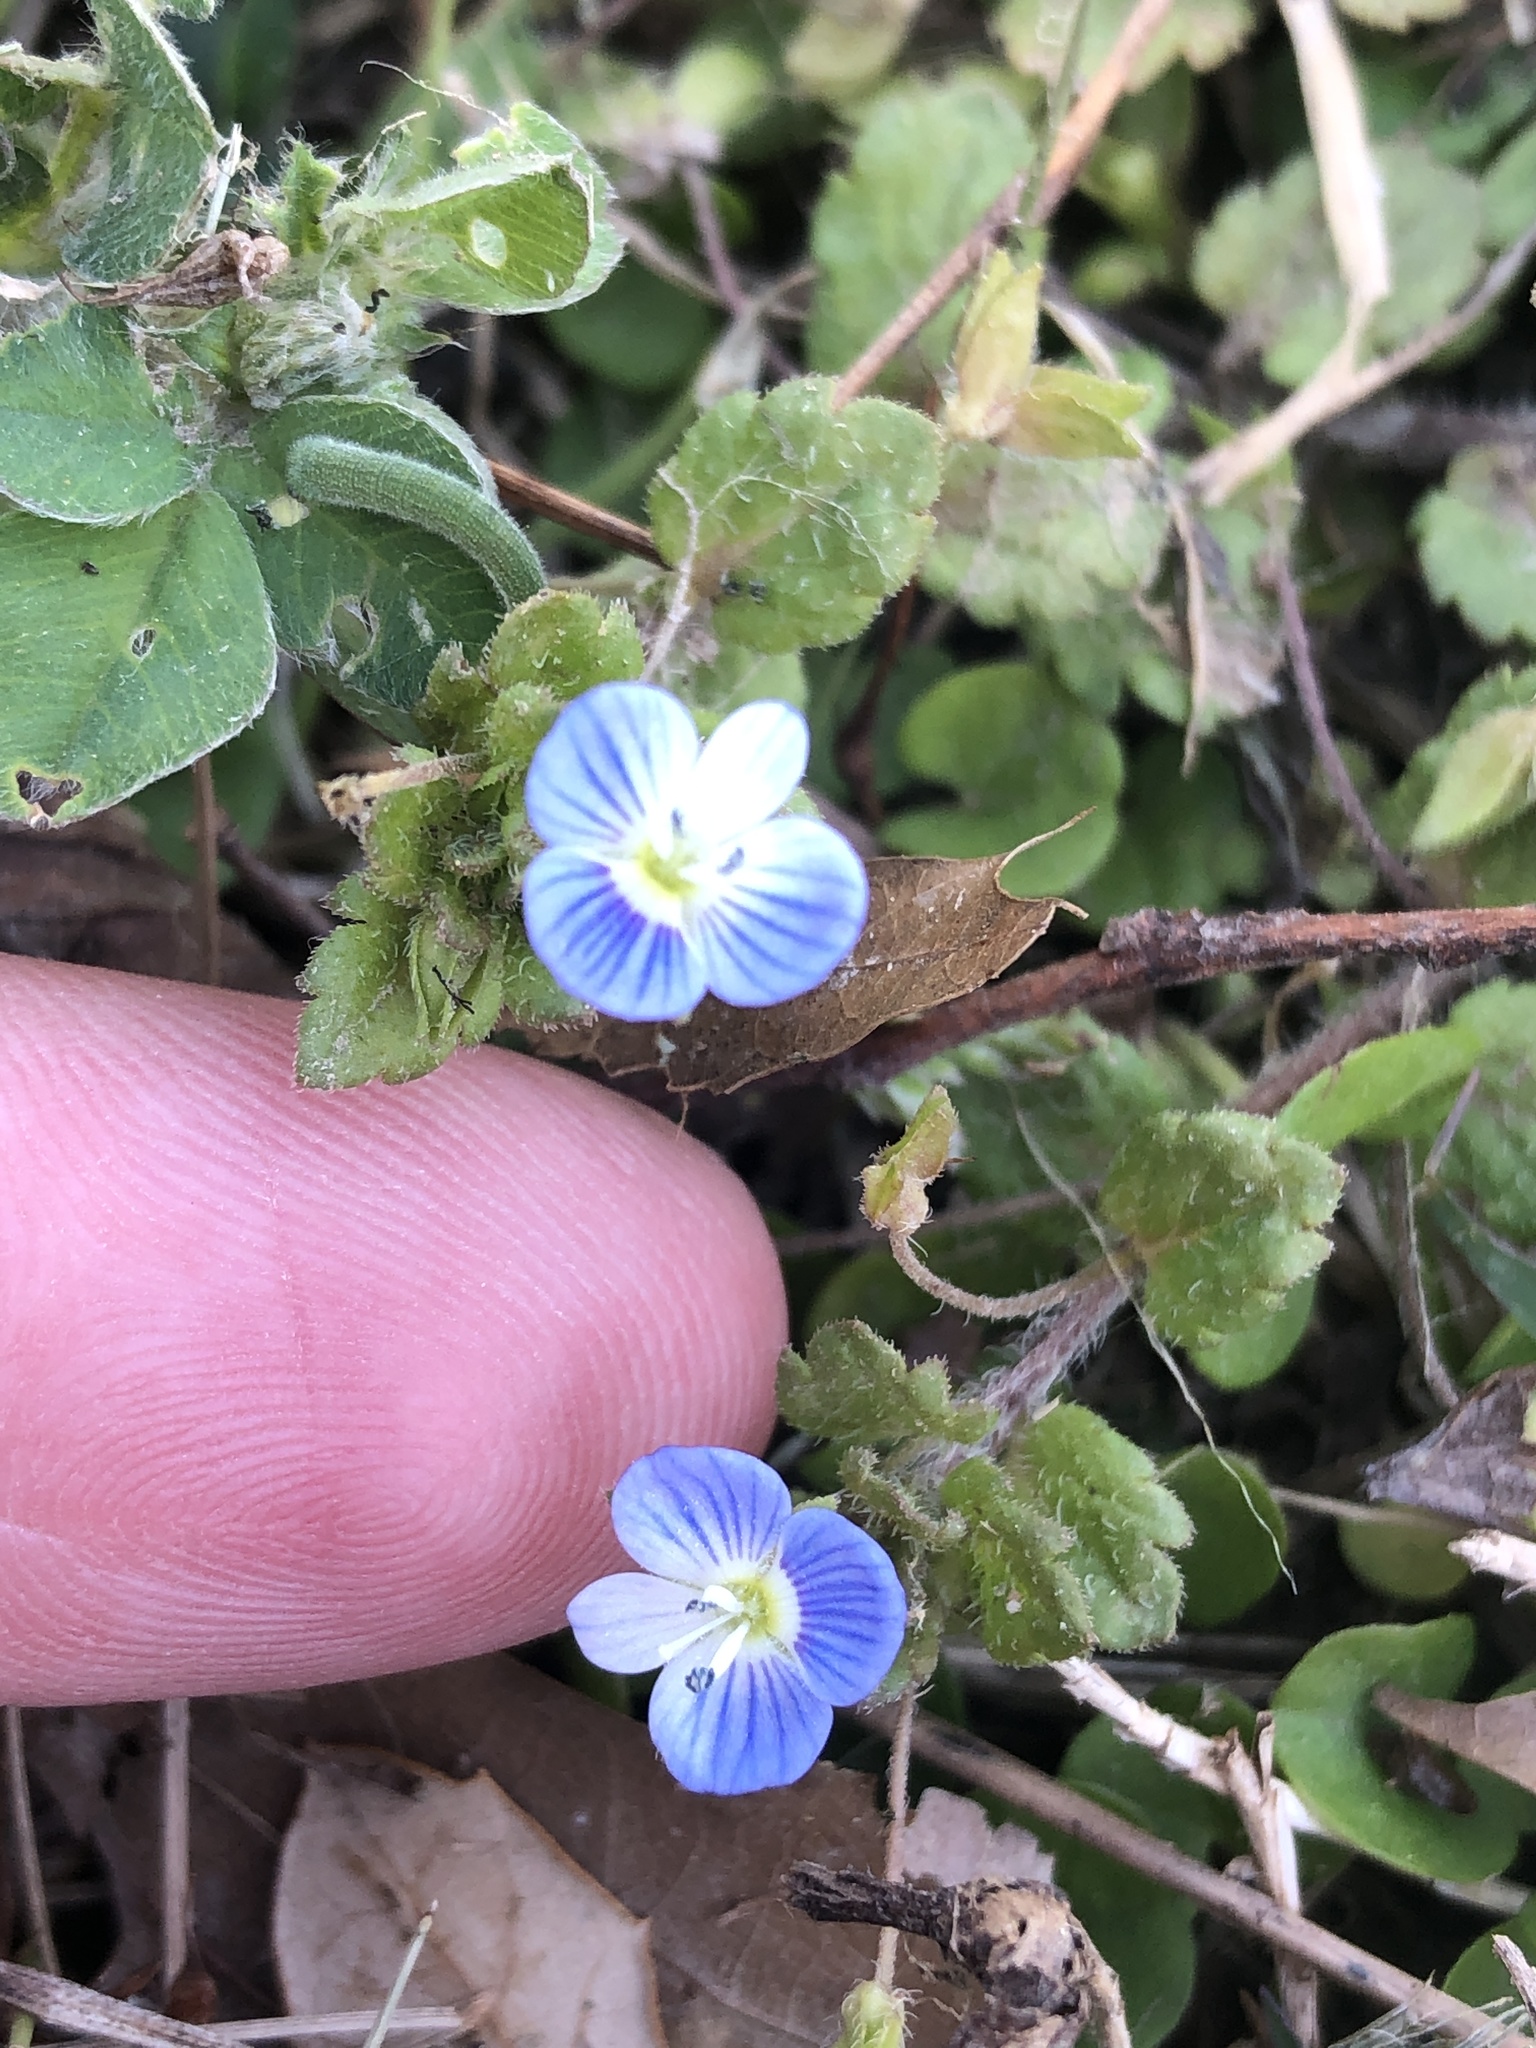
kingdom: Plantae
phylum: Tracheophyta
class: Magnoliopsida
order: Lamiales
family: Plantaginaceae
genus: Veronica
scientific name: Veronica persica
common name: Common field-speedwell
